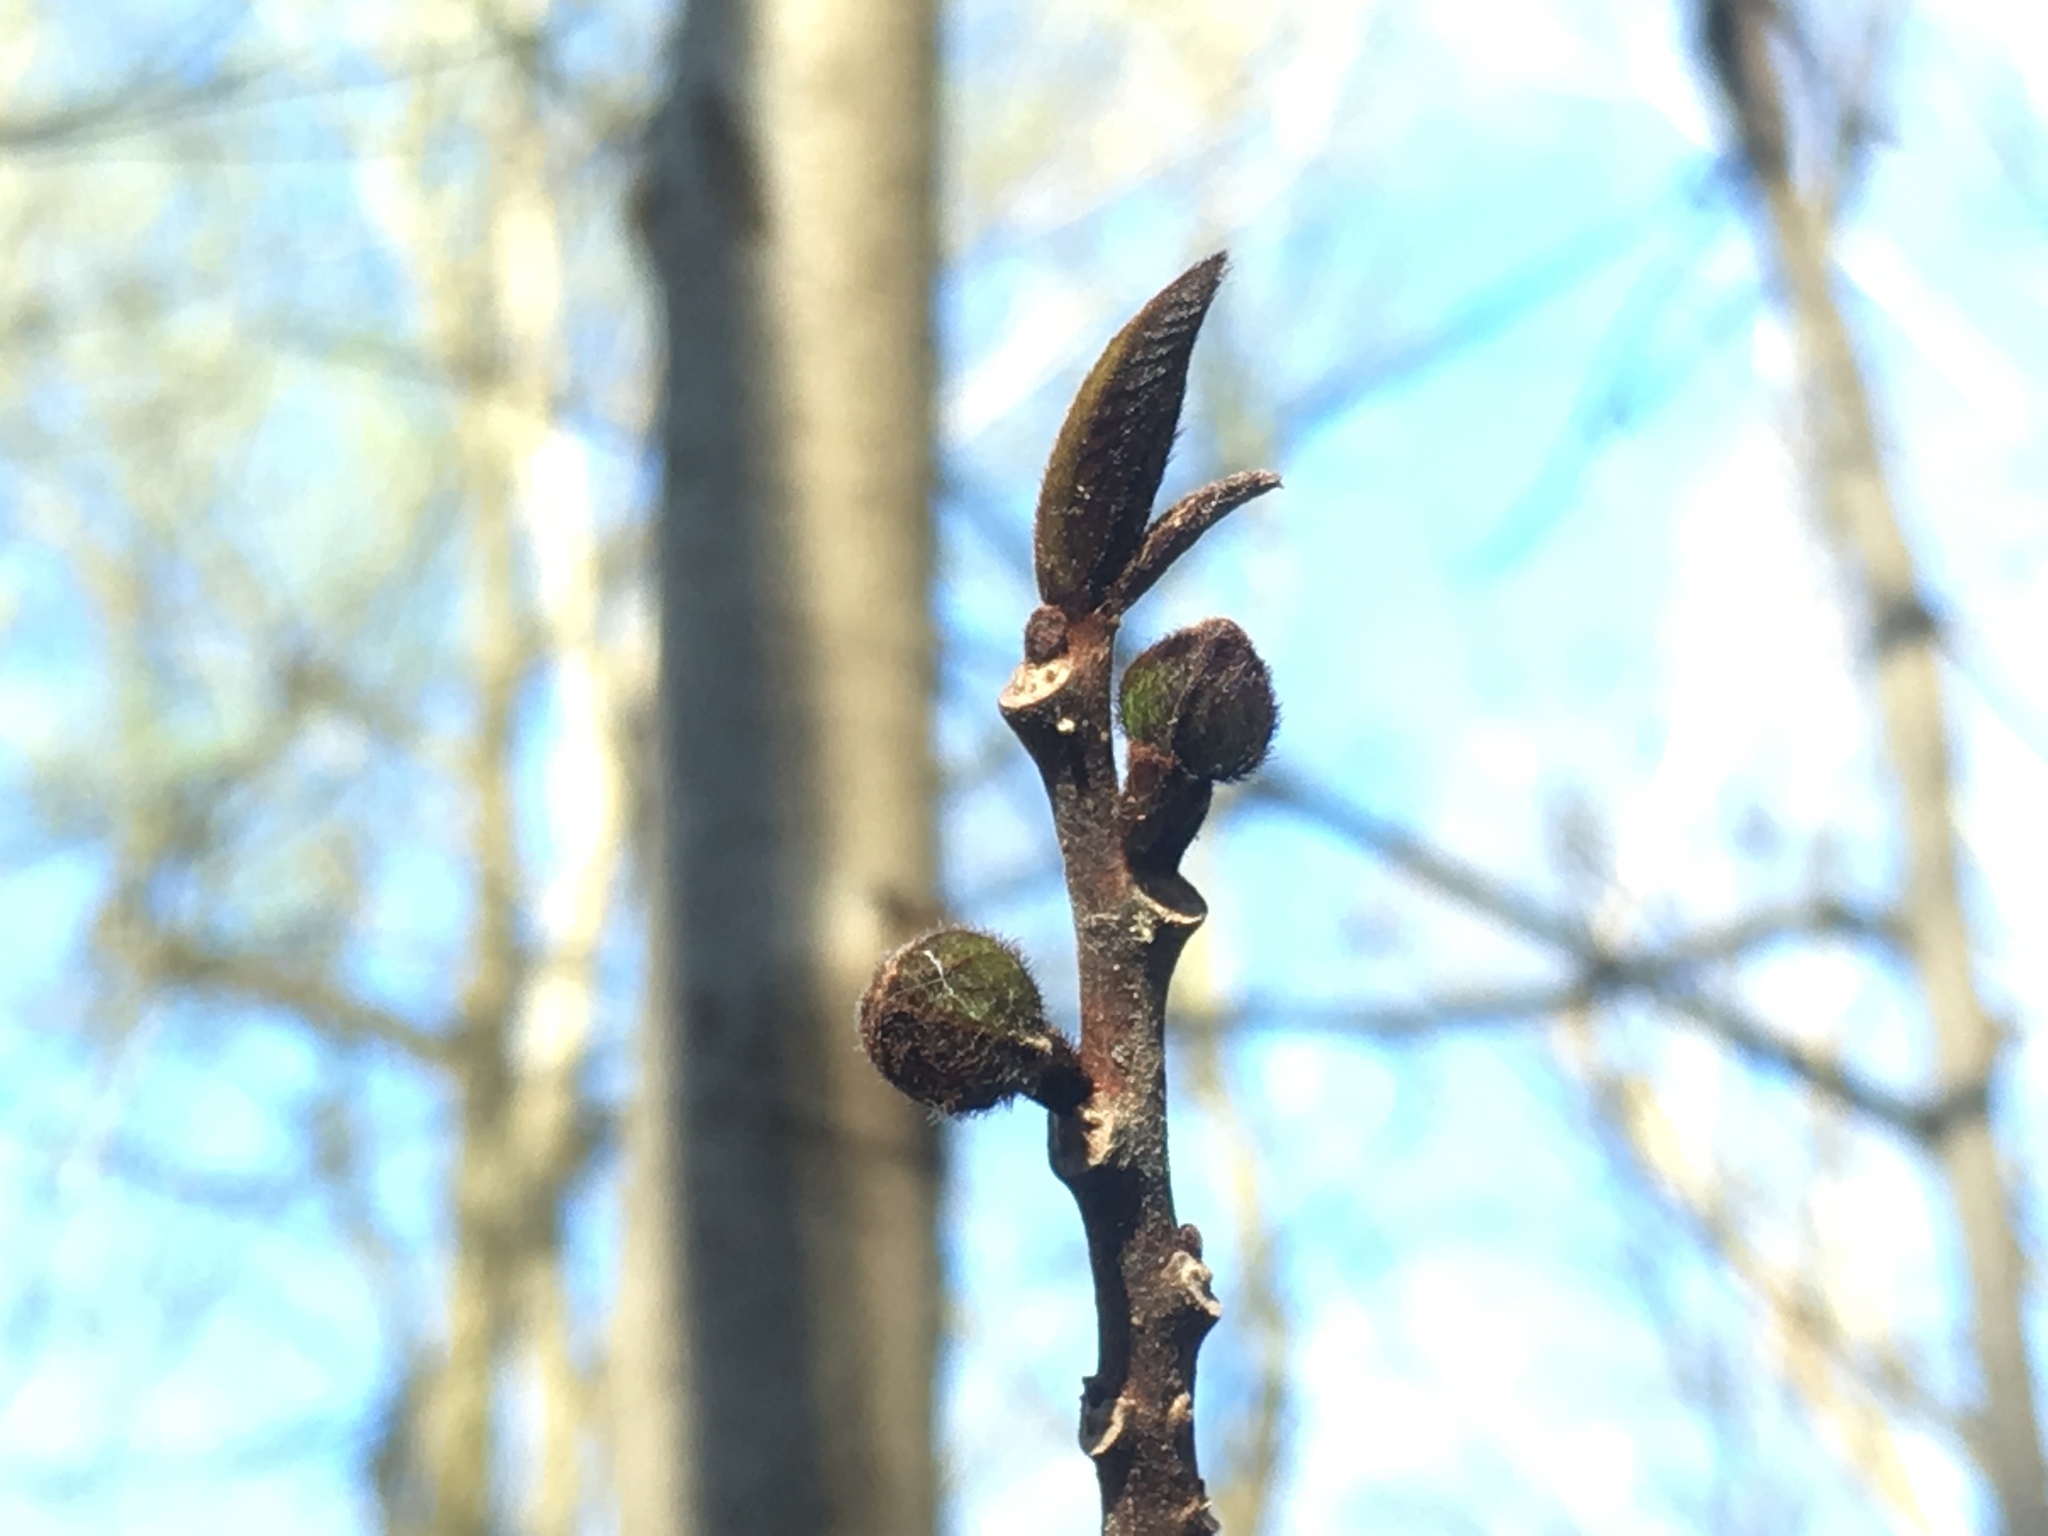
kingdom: Plantae
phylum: Tracheophyta
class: Magnoliopsida
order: Magnoliales
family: Annonaceae
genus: Asimina
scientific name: Asimina triloba
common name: Dog-banana
